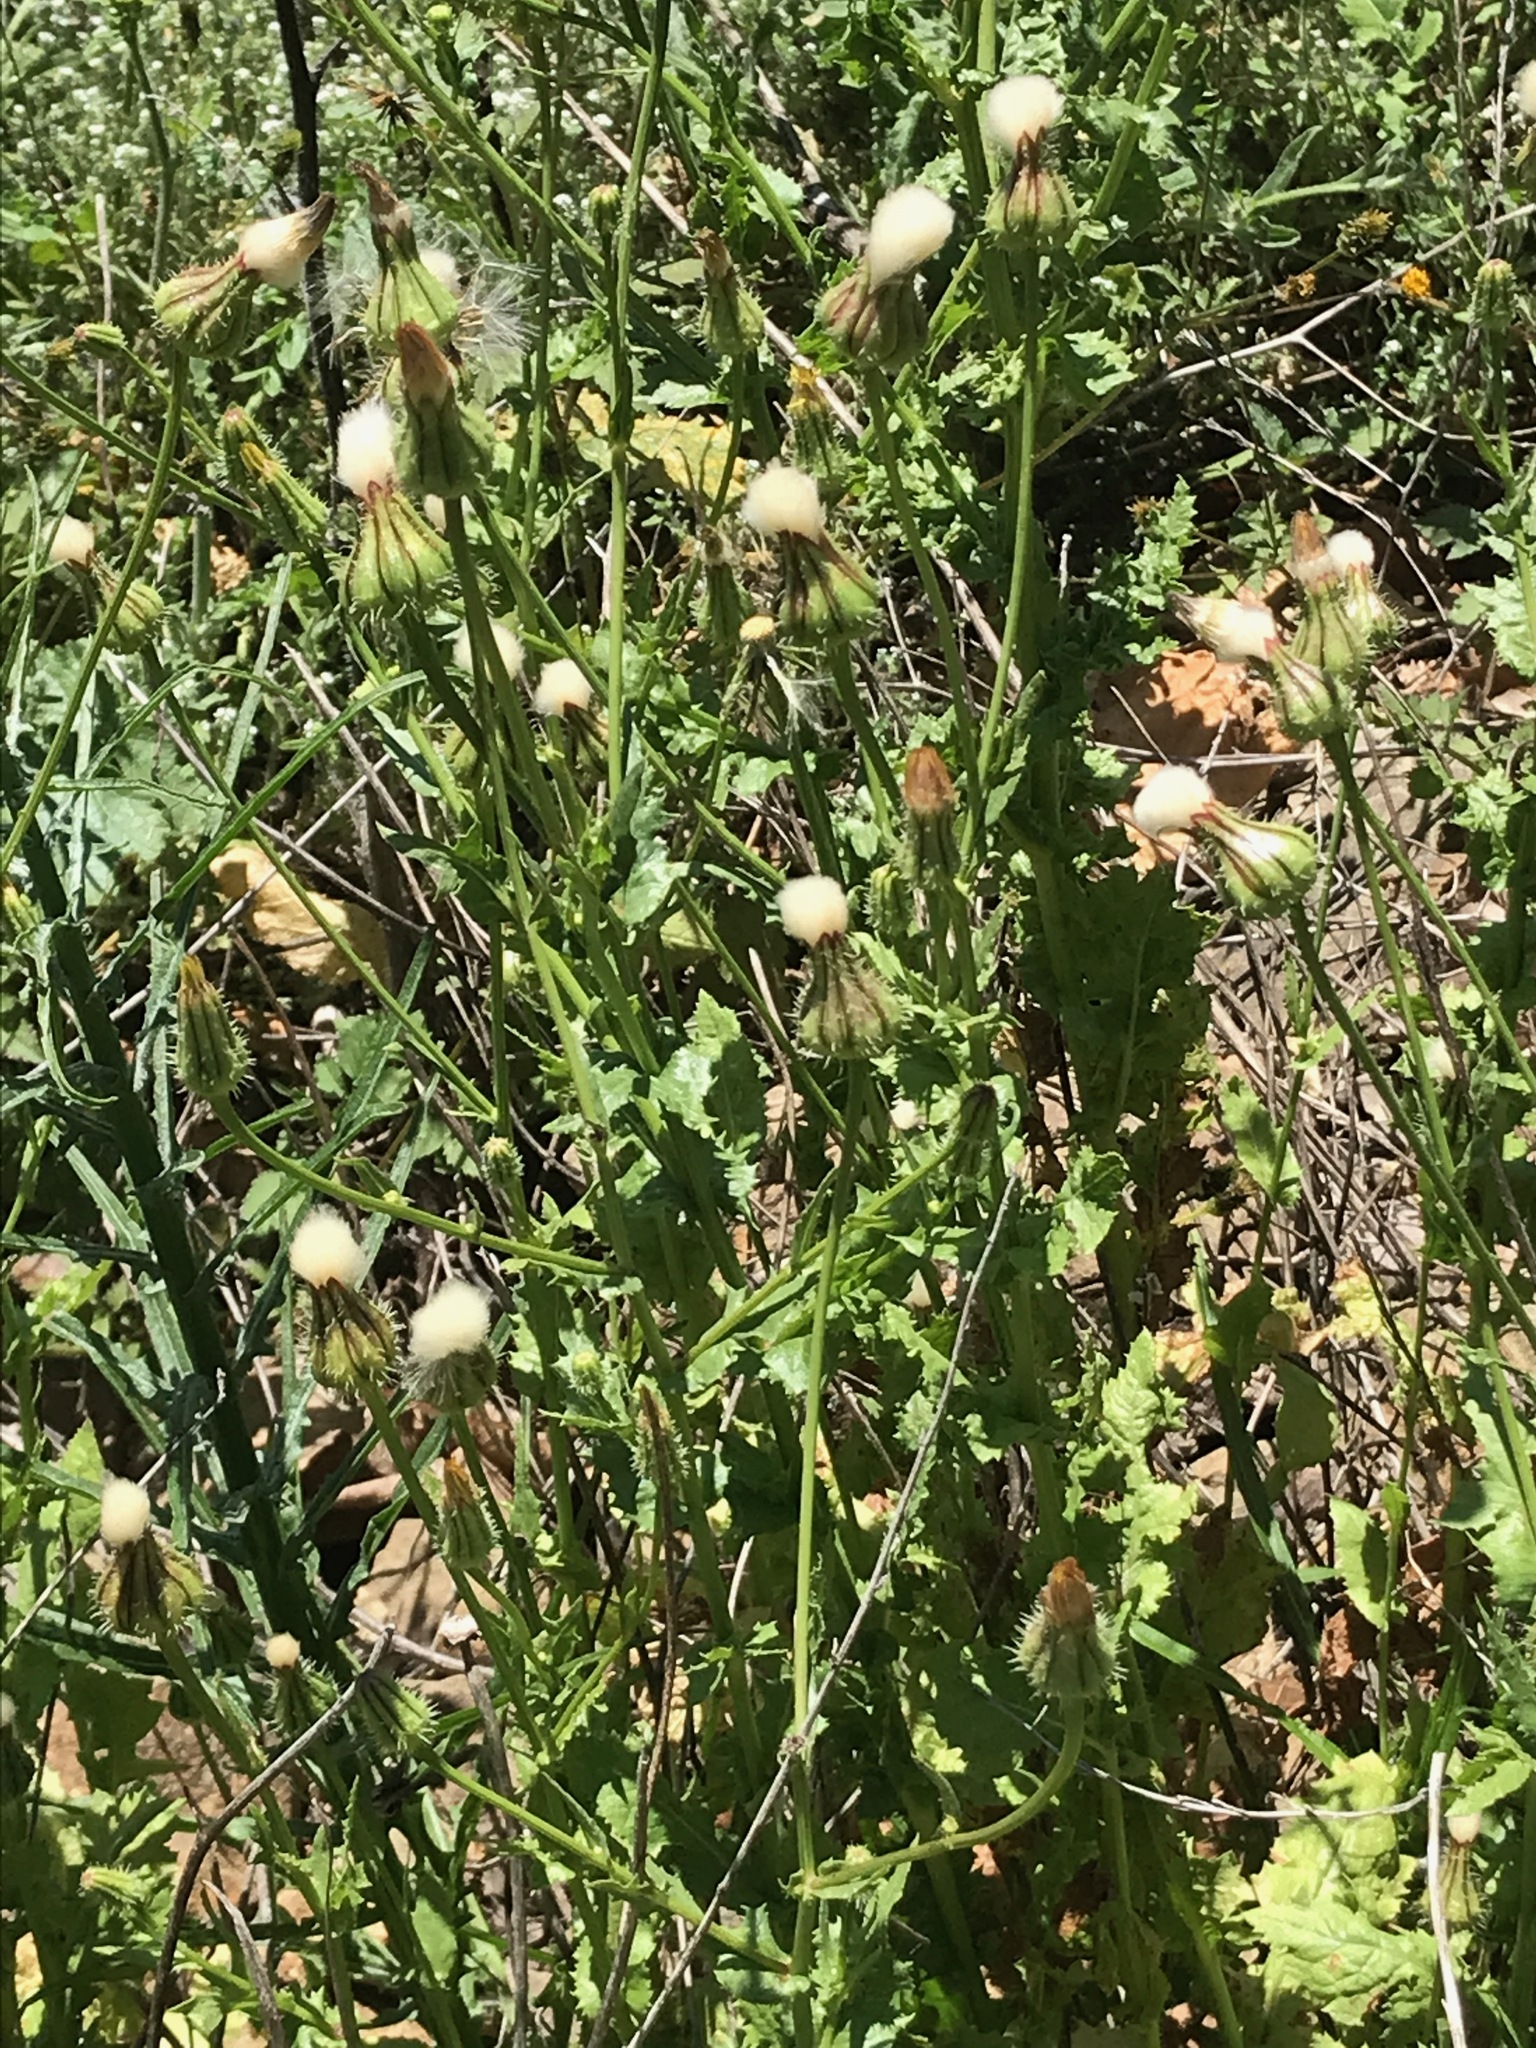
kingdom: Plantae
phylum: Tracheophyta
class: Magnoliopsida
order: Asterales
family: Asteraceae
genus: Urospermum
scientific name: Urospermum picroides
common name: False hawkbit
